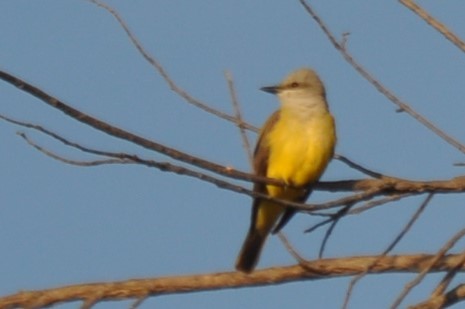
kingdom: Animalia
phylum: Chordata
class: Aves
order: Passeriformes
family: Tyrannidae
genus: Tyrannus
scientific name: Tyrannus verticalis
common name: Western kingbird
